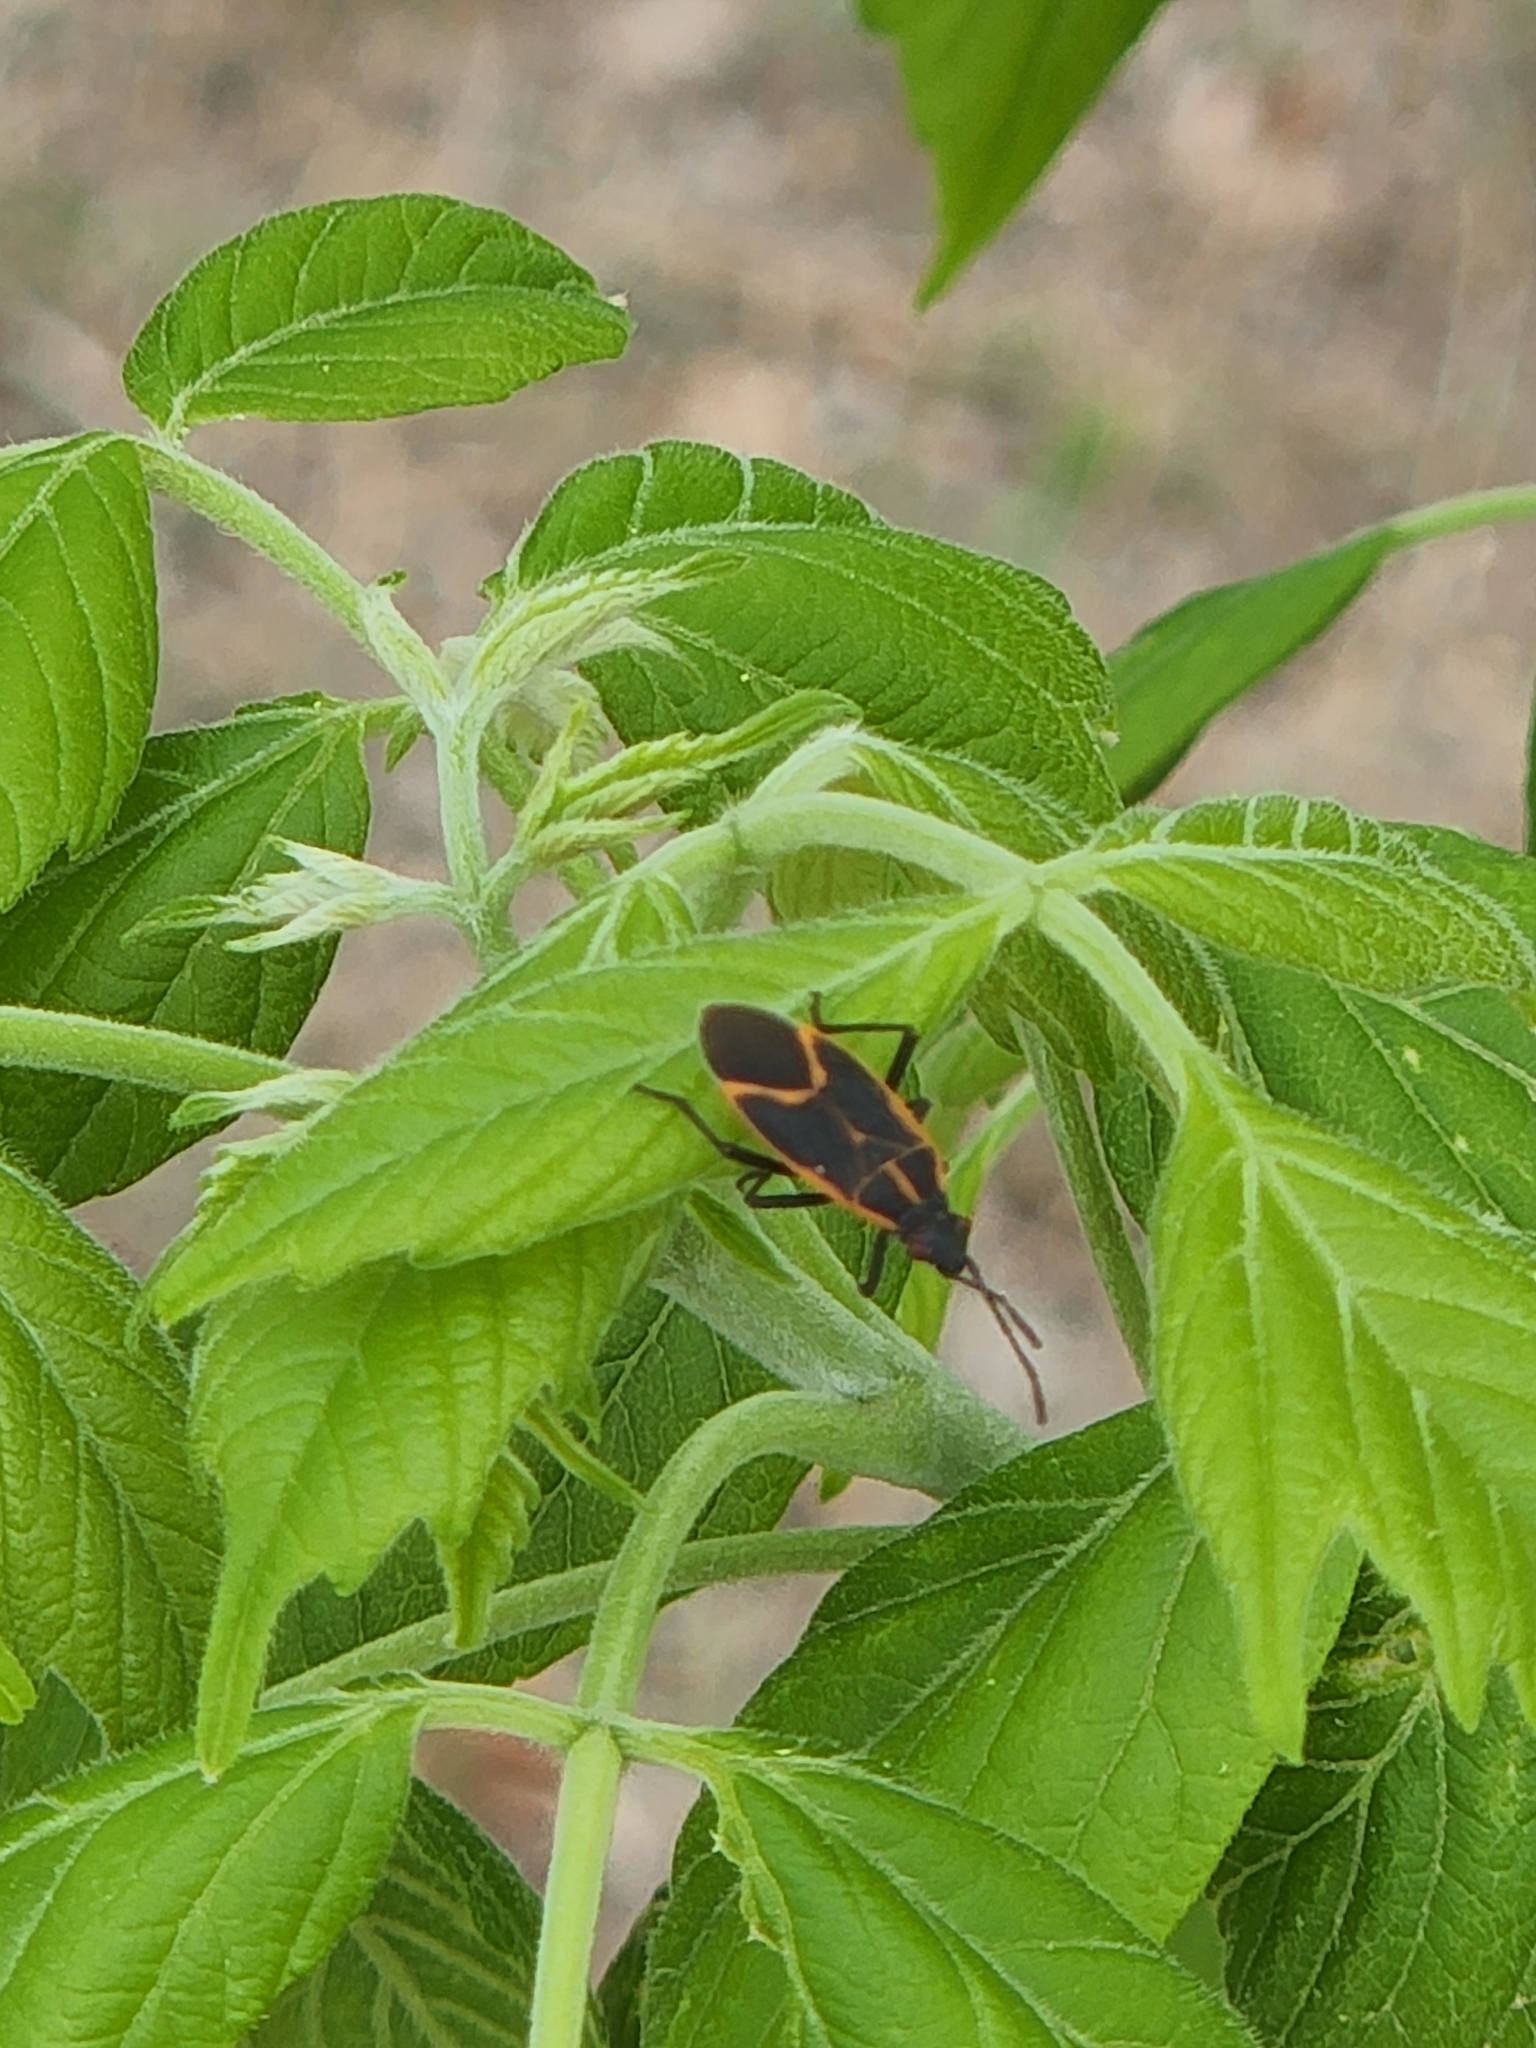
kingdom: Animalia
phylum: Arthropoda
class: Insecta
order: Hemiptera
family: Rhopalidae
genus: Boisea
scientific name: Boisea trivittata
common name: Boxelder bug
